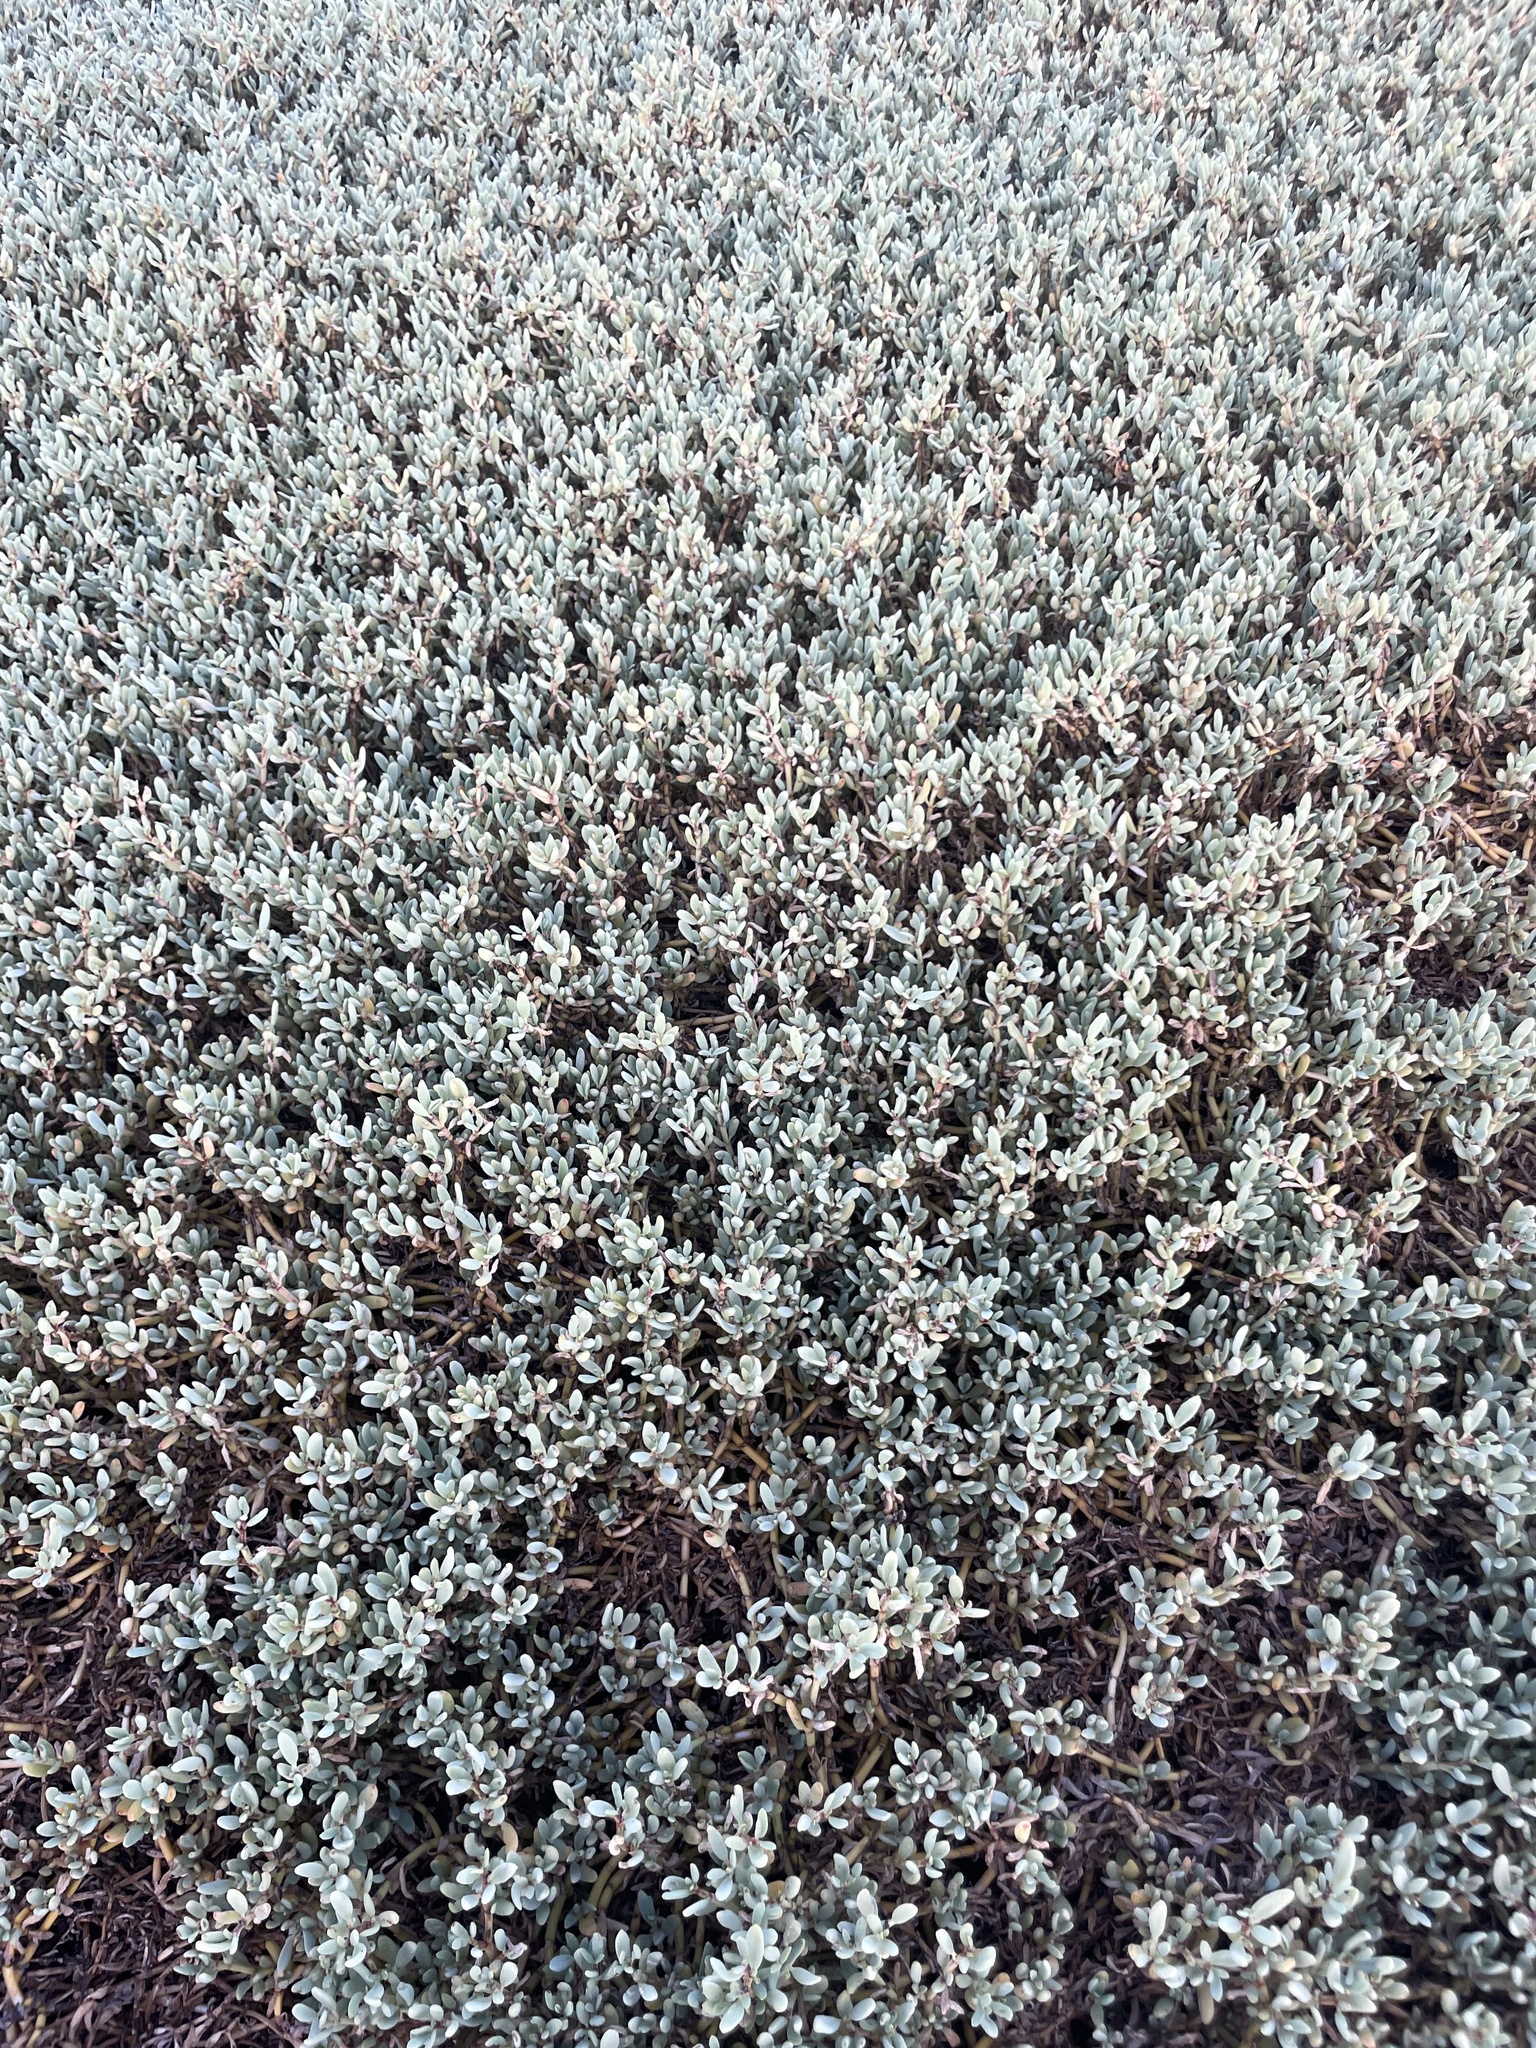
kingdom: Plantae
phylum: Tracheophyta
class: Magnoliopsida
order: Caryophyllales
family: Aizoaceae
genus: Sesuvium
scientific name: Sesuvium portulacastrum
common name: Sea-purslane
